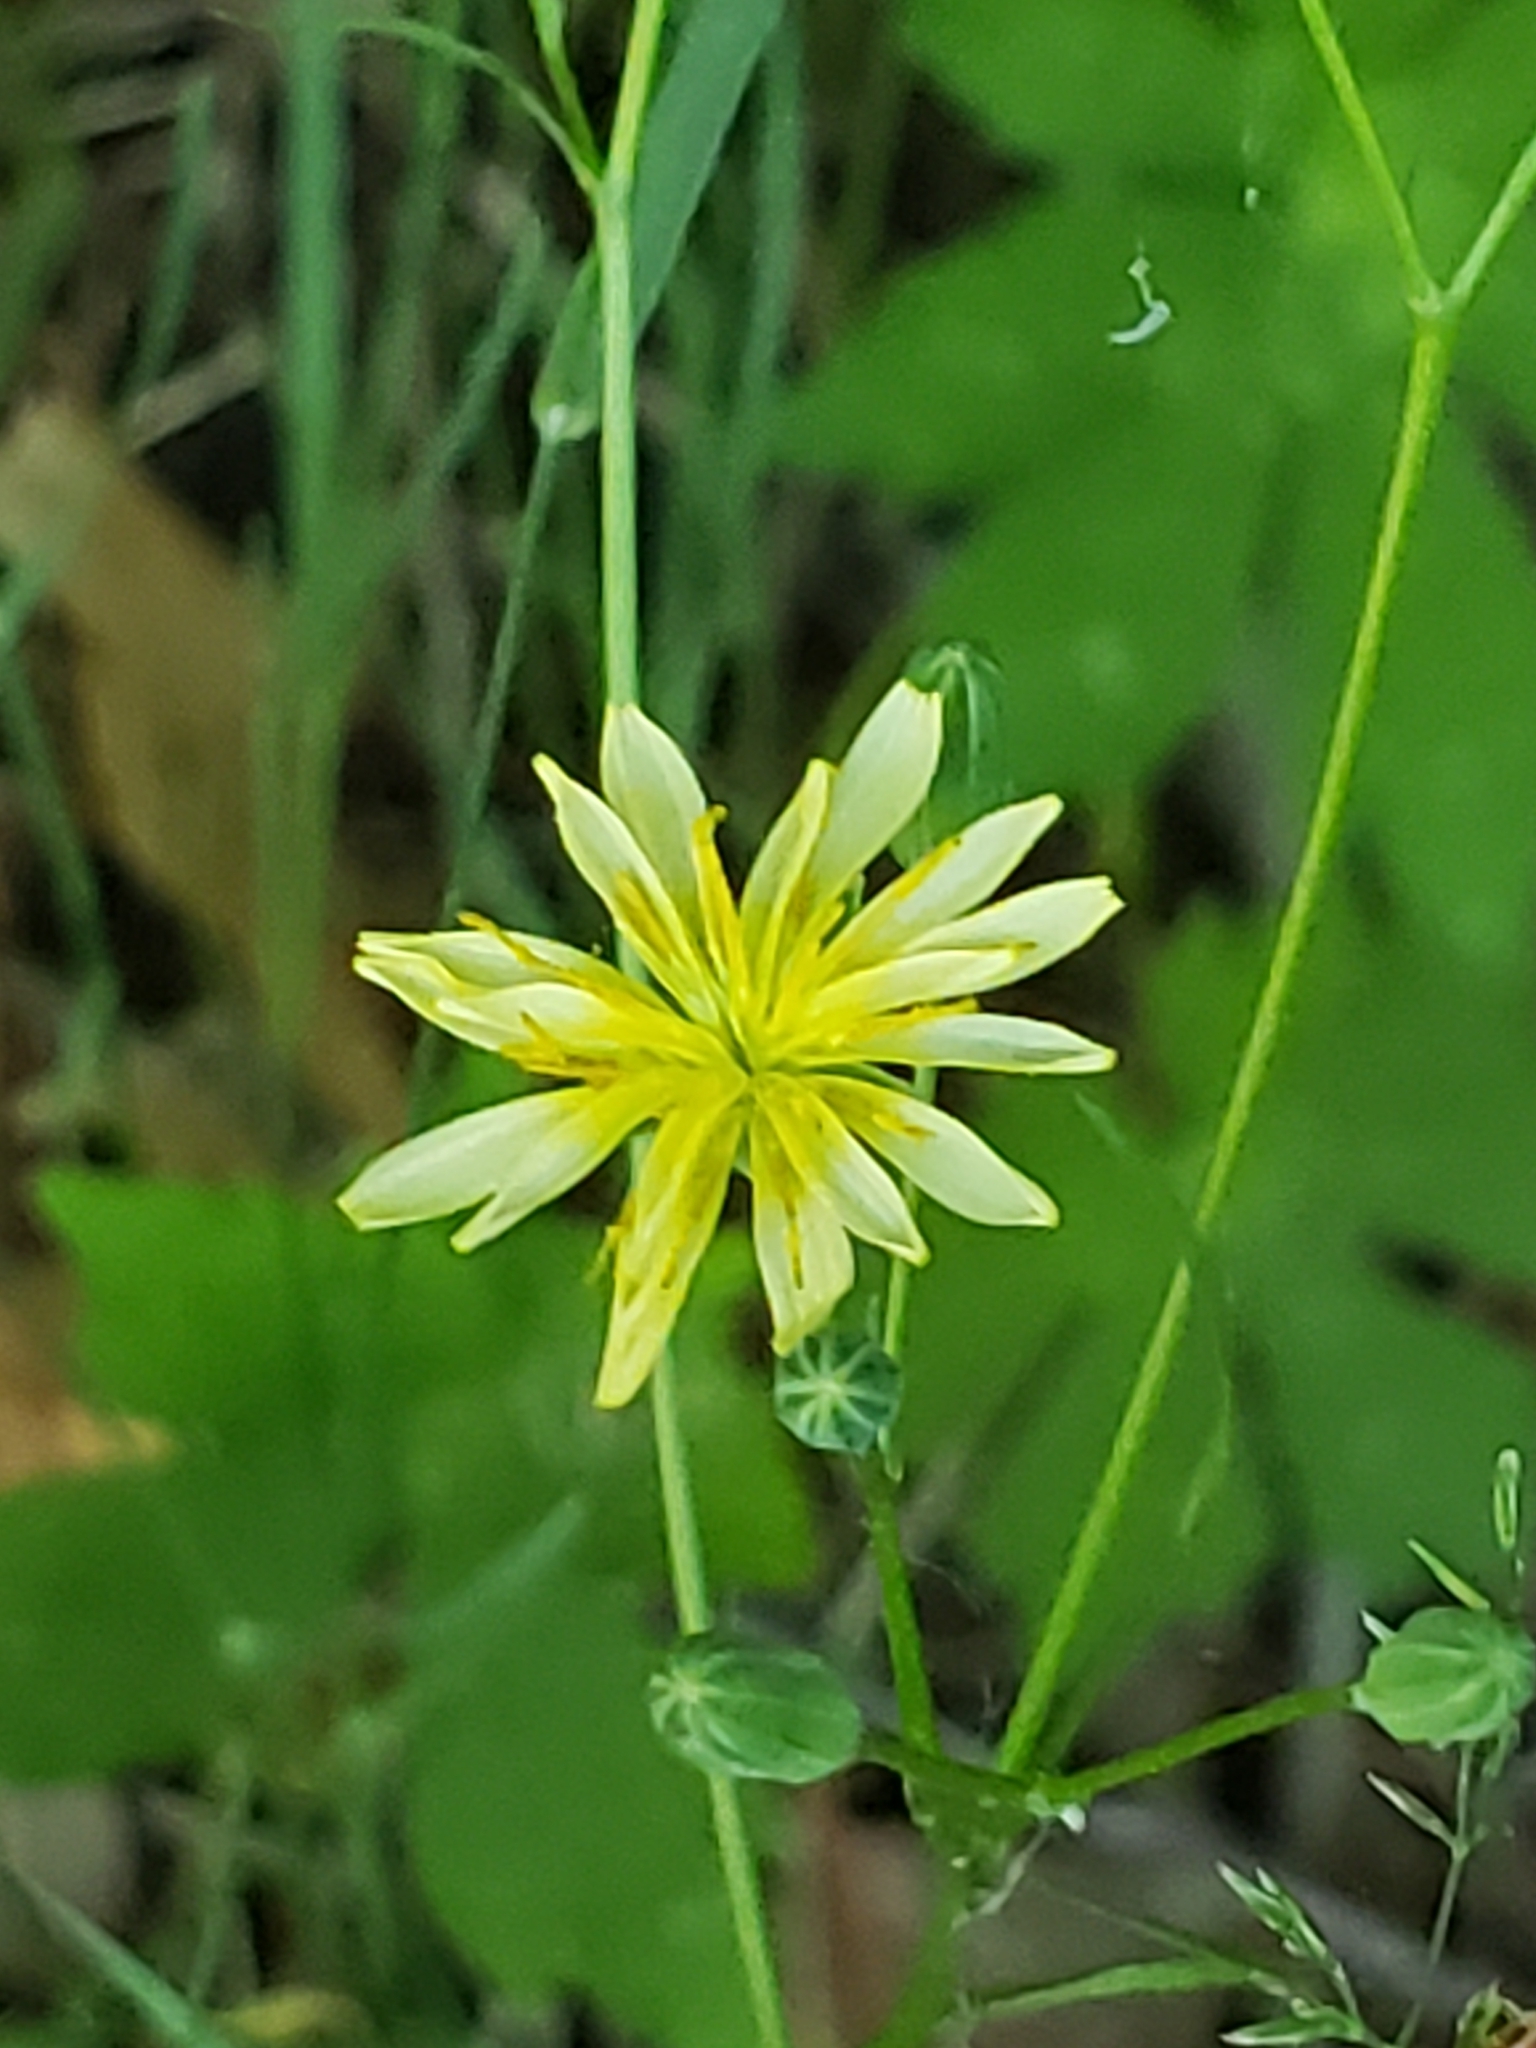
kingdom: Plantae
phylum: Tracheophyta
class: Magnoliopsida
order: Asterales
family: Asteraceae
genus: Lapsana
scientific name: Lapsana communis
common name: Nipplewort
